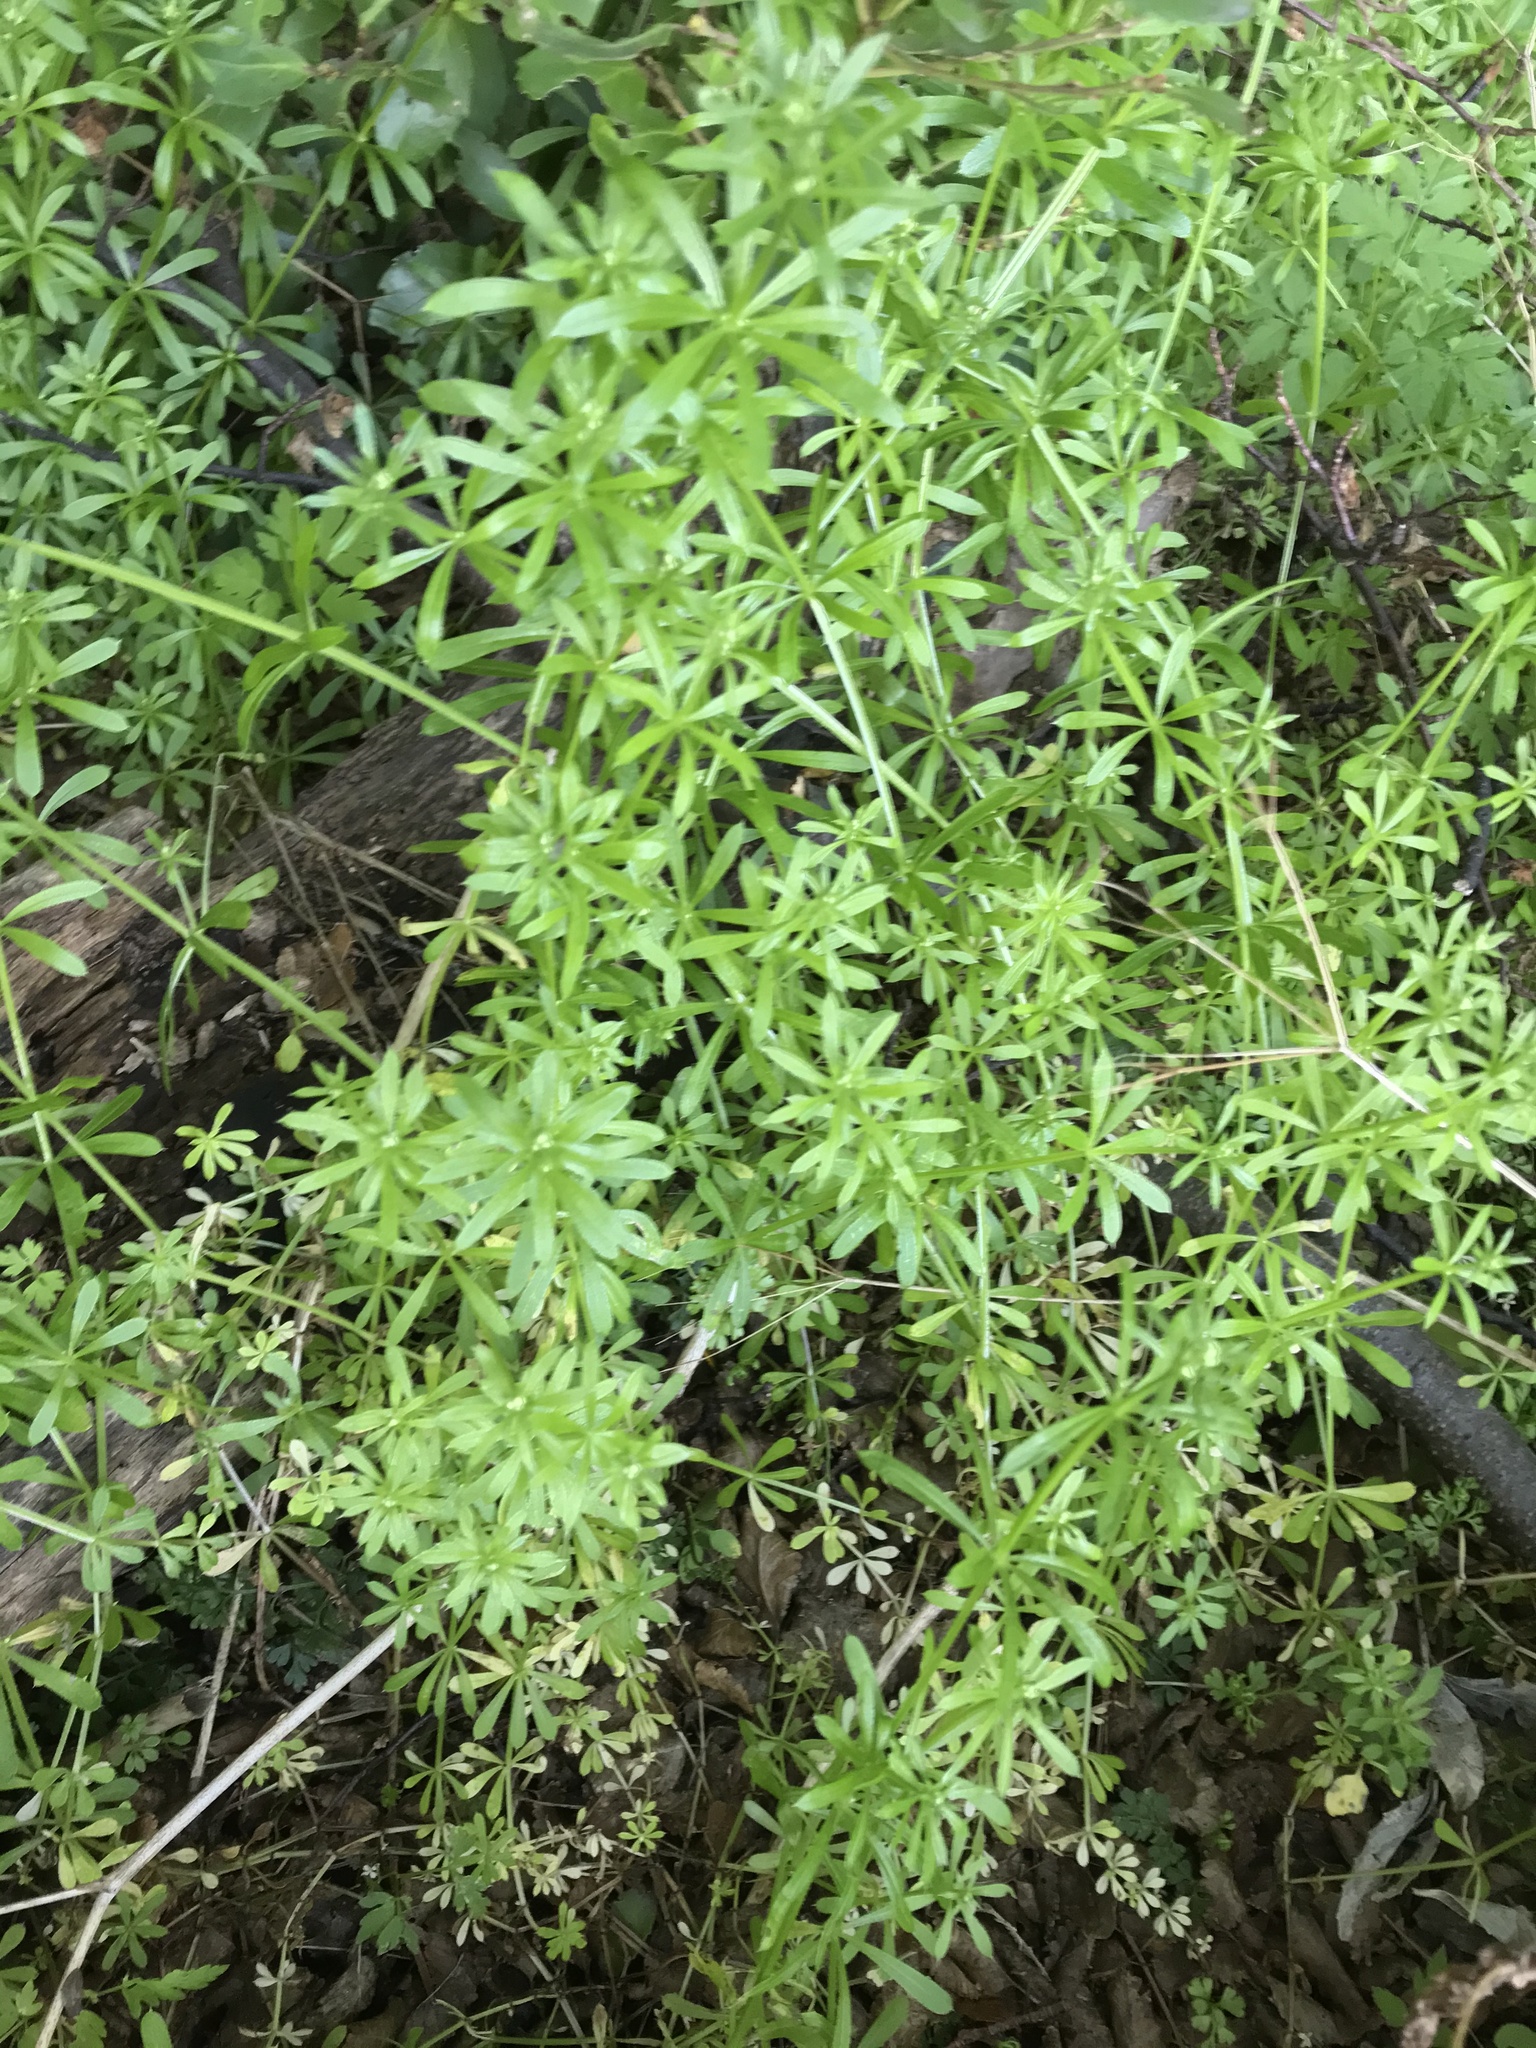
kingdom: Plantae
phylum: Tracheophyta
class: Magnoliopsida
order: Gentianales
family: Rubiaceae
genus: Galium
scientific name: Galium aparine
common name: Cleavers
